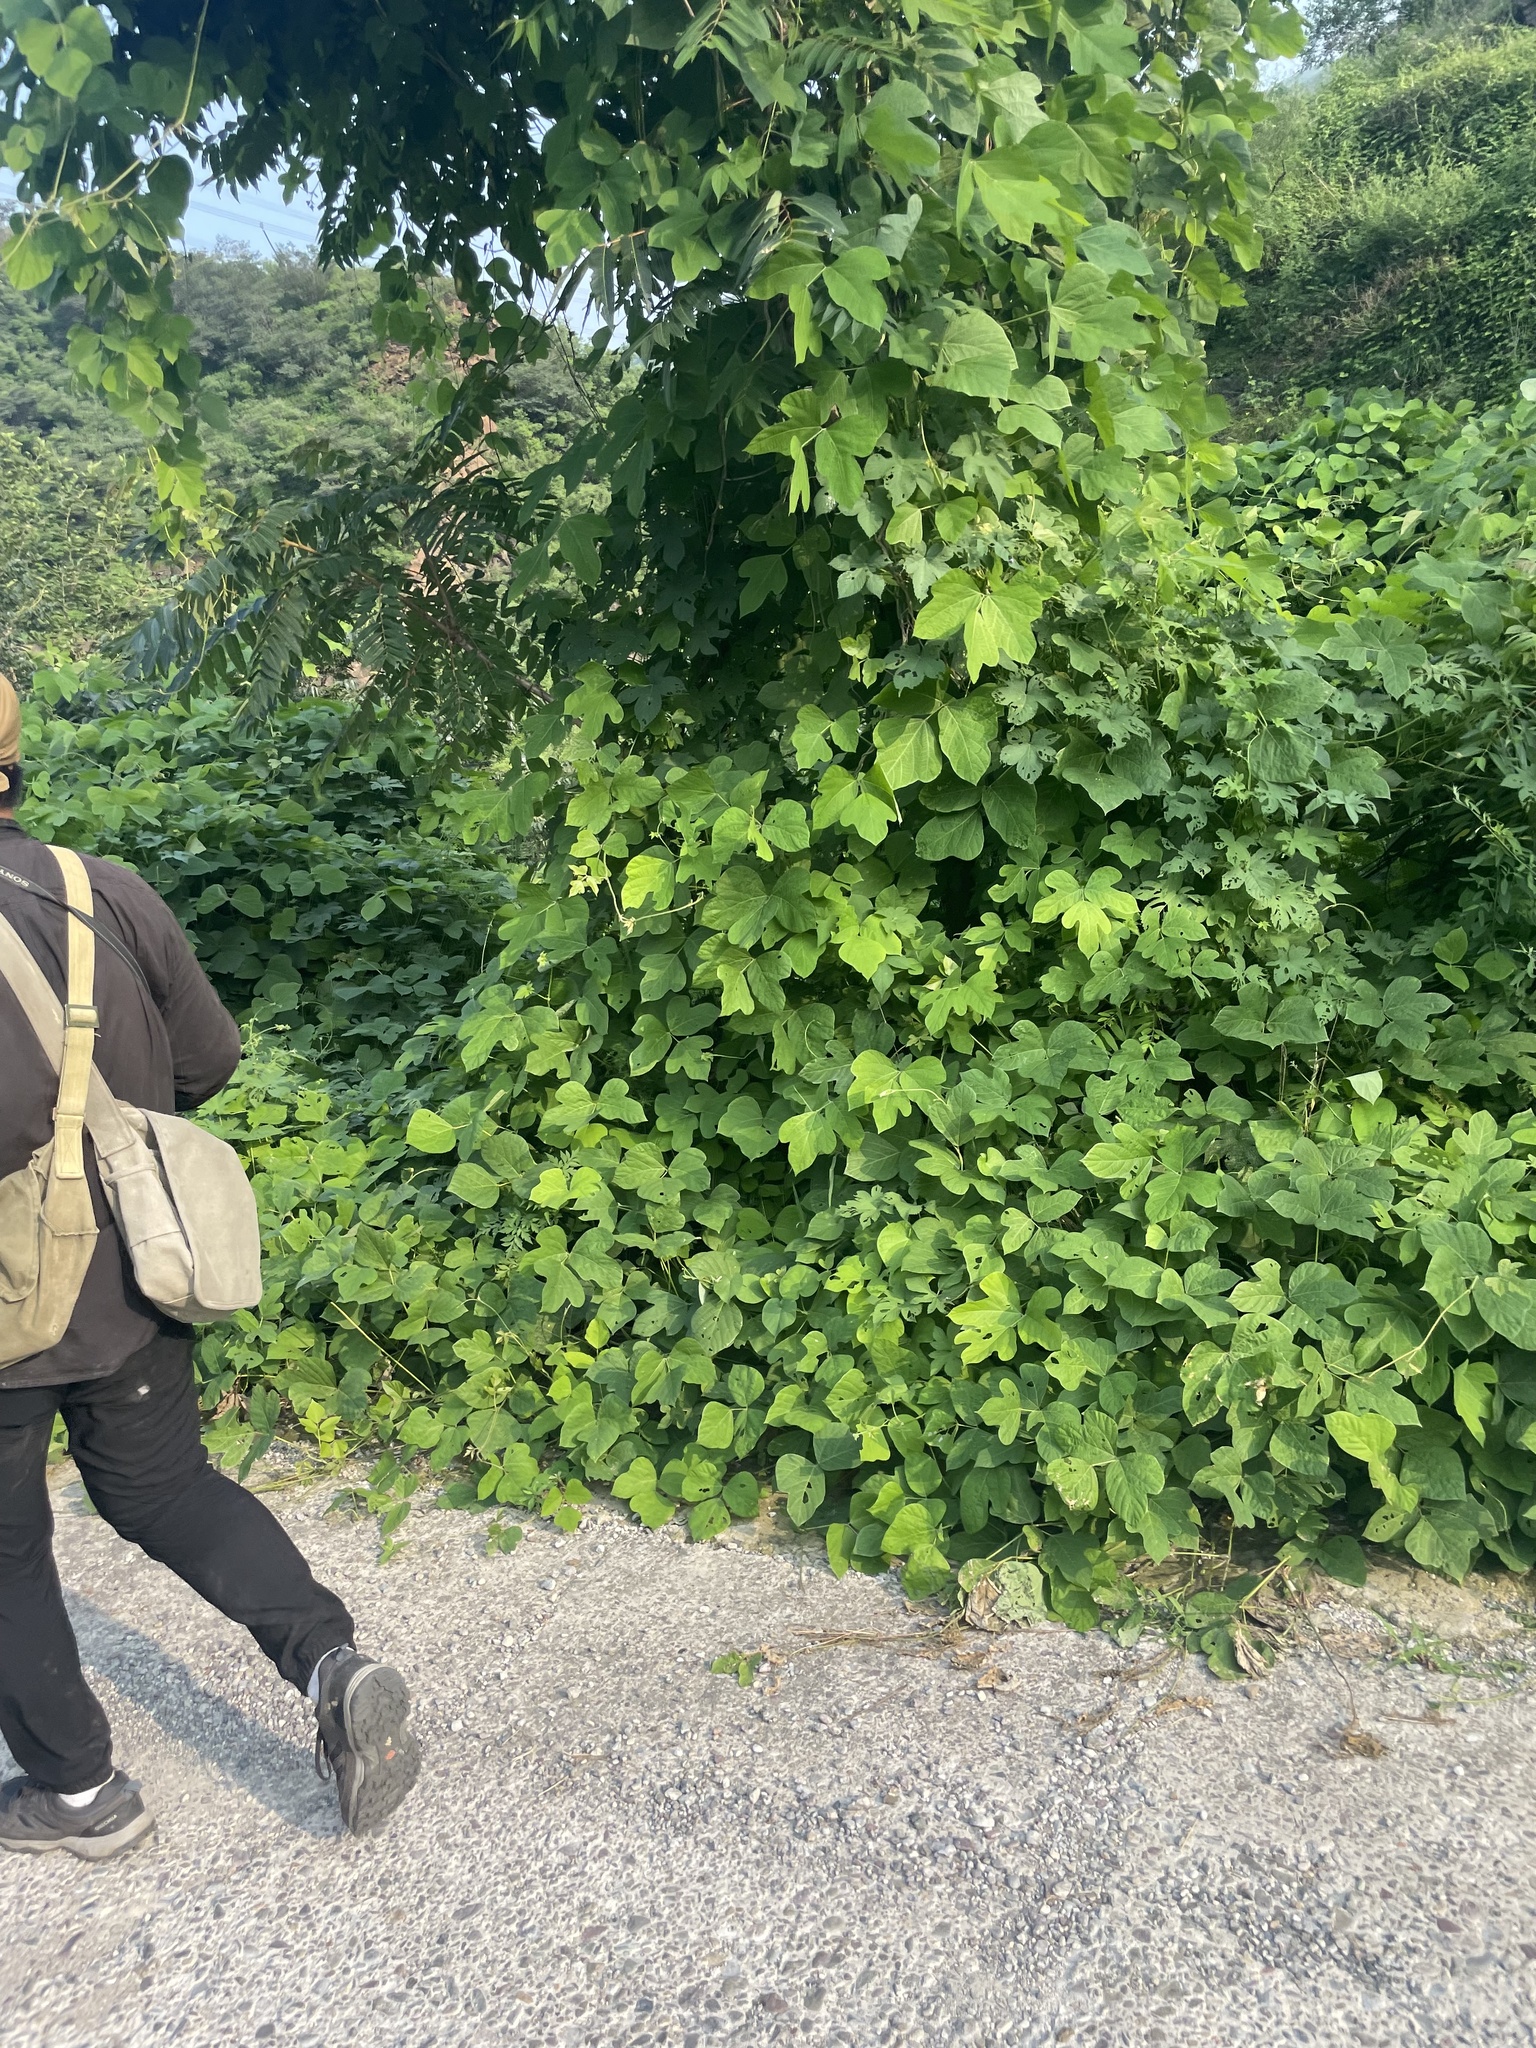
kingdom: Plantae
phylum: Tracheophyta
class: Magnoliopsida
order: Fabales
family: Fabaceae
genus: Pueraria
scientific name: Pueraria montana
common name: Kudzu
